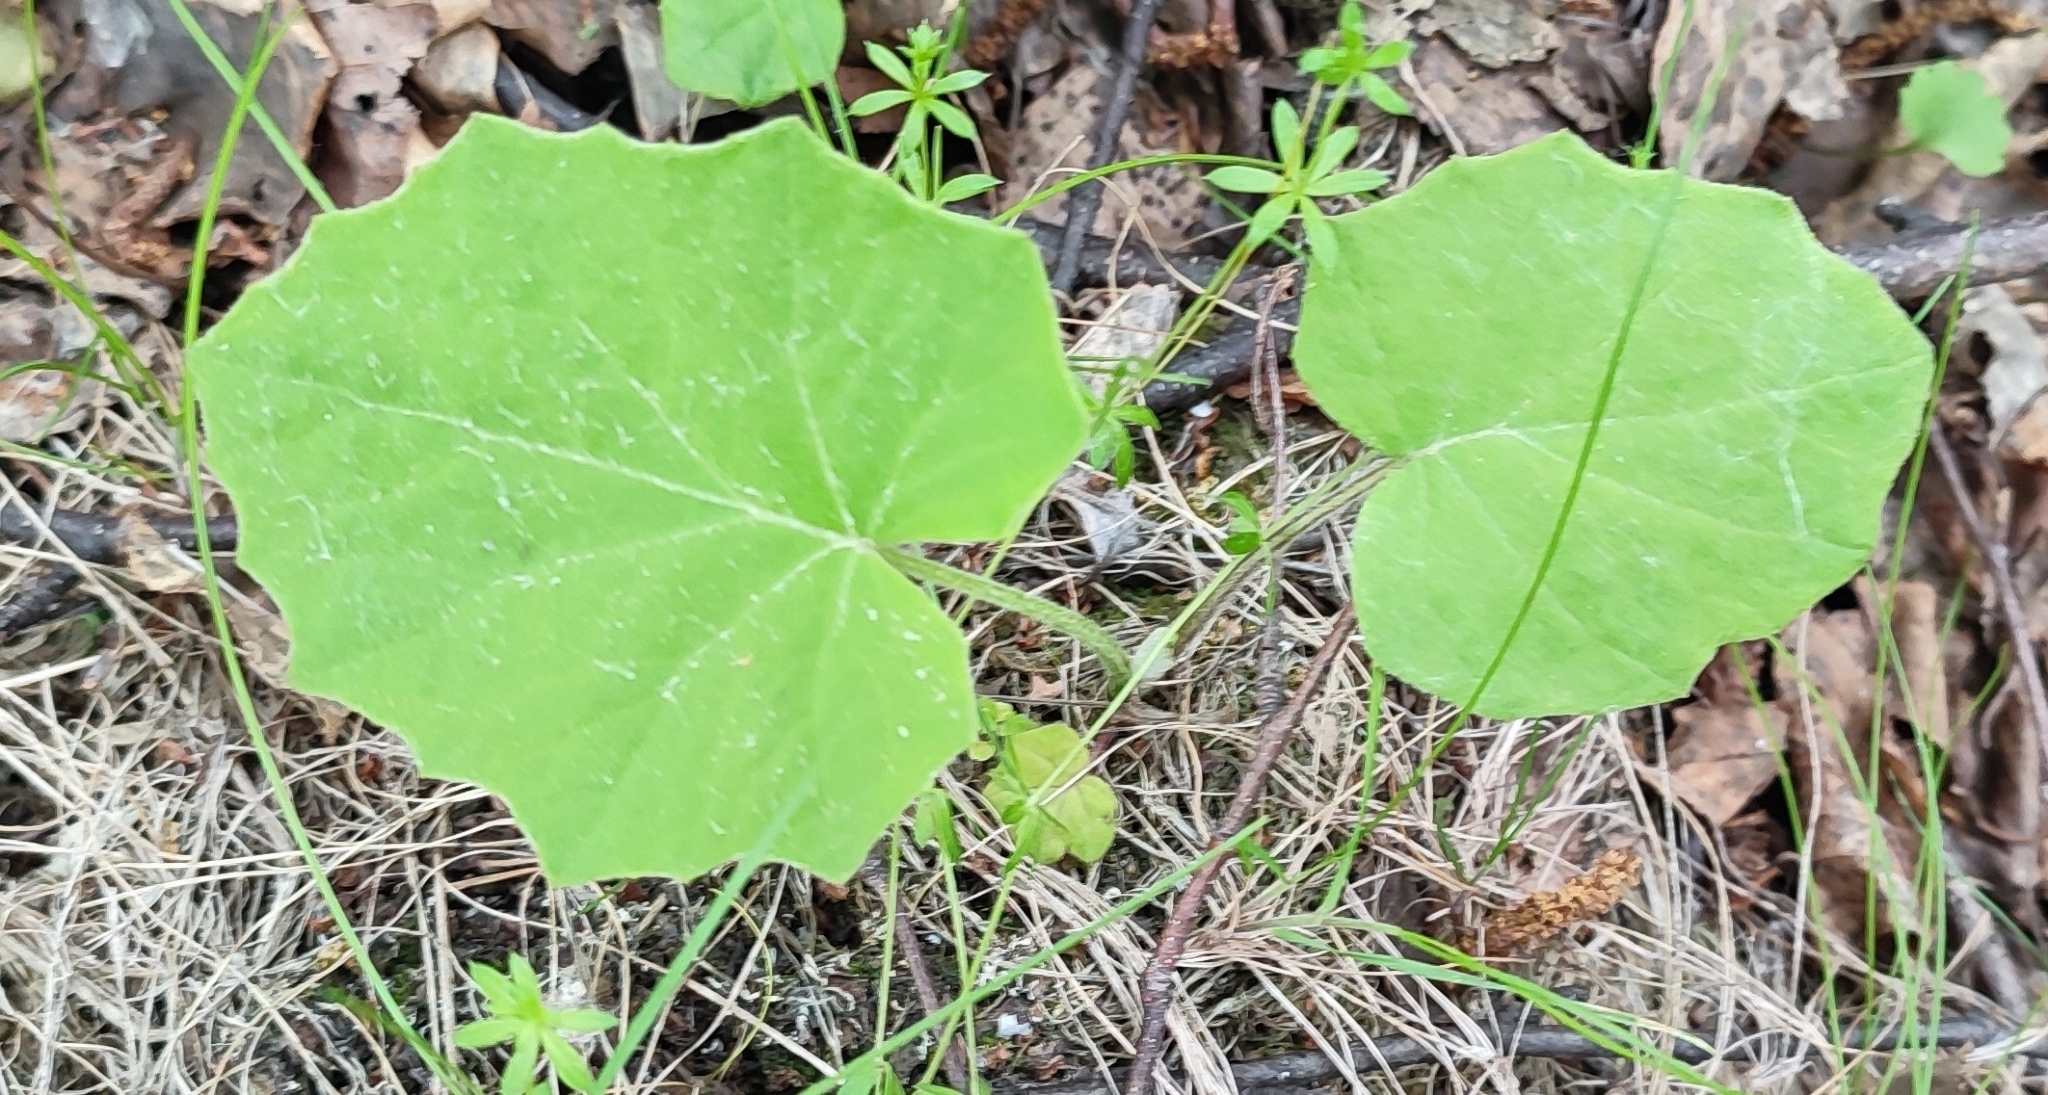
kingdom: Plantae
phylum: Tracheophyta
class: Magnoliopsida
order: Asterales
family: Asteraceae
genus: Tussilago
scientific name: Tussilago farfara
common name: Coltsfoot
